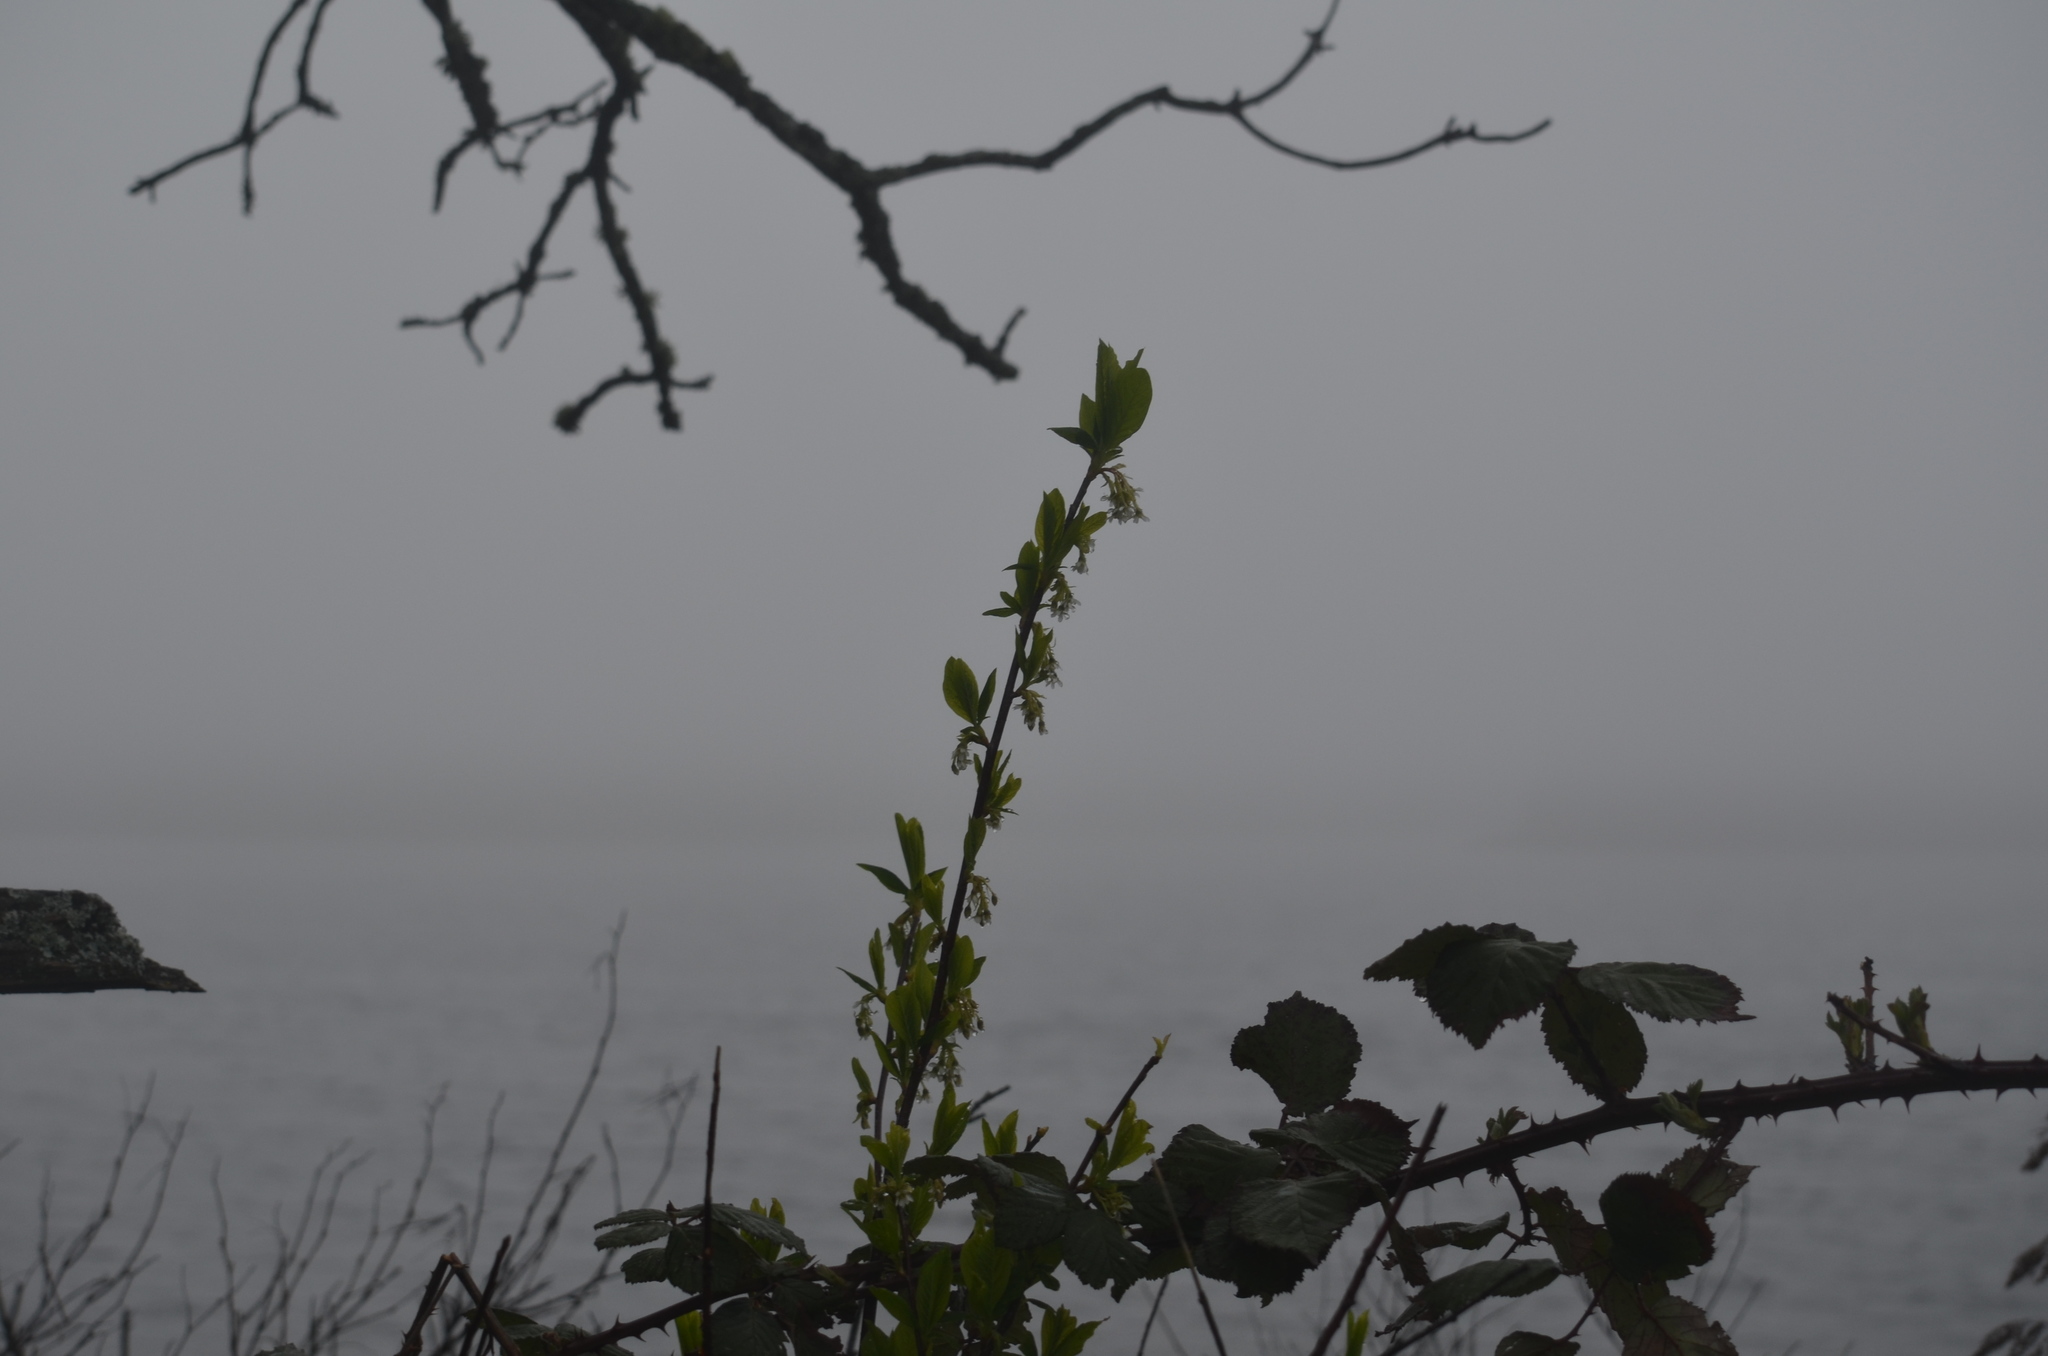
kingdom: Plantae
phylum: Tracheophyta
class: Magnoliopsida
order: Rosales
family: Rosaceae
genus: Oemleria
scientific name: Oemleria cerasiformis
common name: Osoberry
